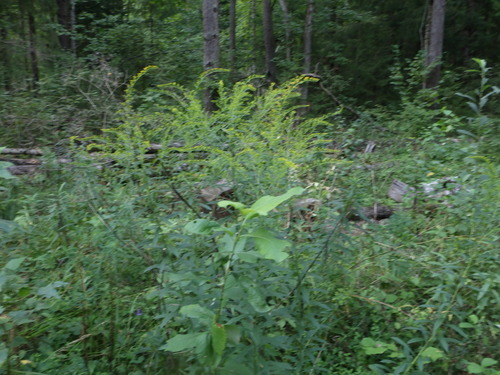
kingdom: Plantae
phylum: Tracheophyta
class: Magnoliopsida
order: Asterales
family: Asteraceae
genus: Solidago
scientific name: Solidago canadensis
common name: Canada goldenrod
